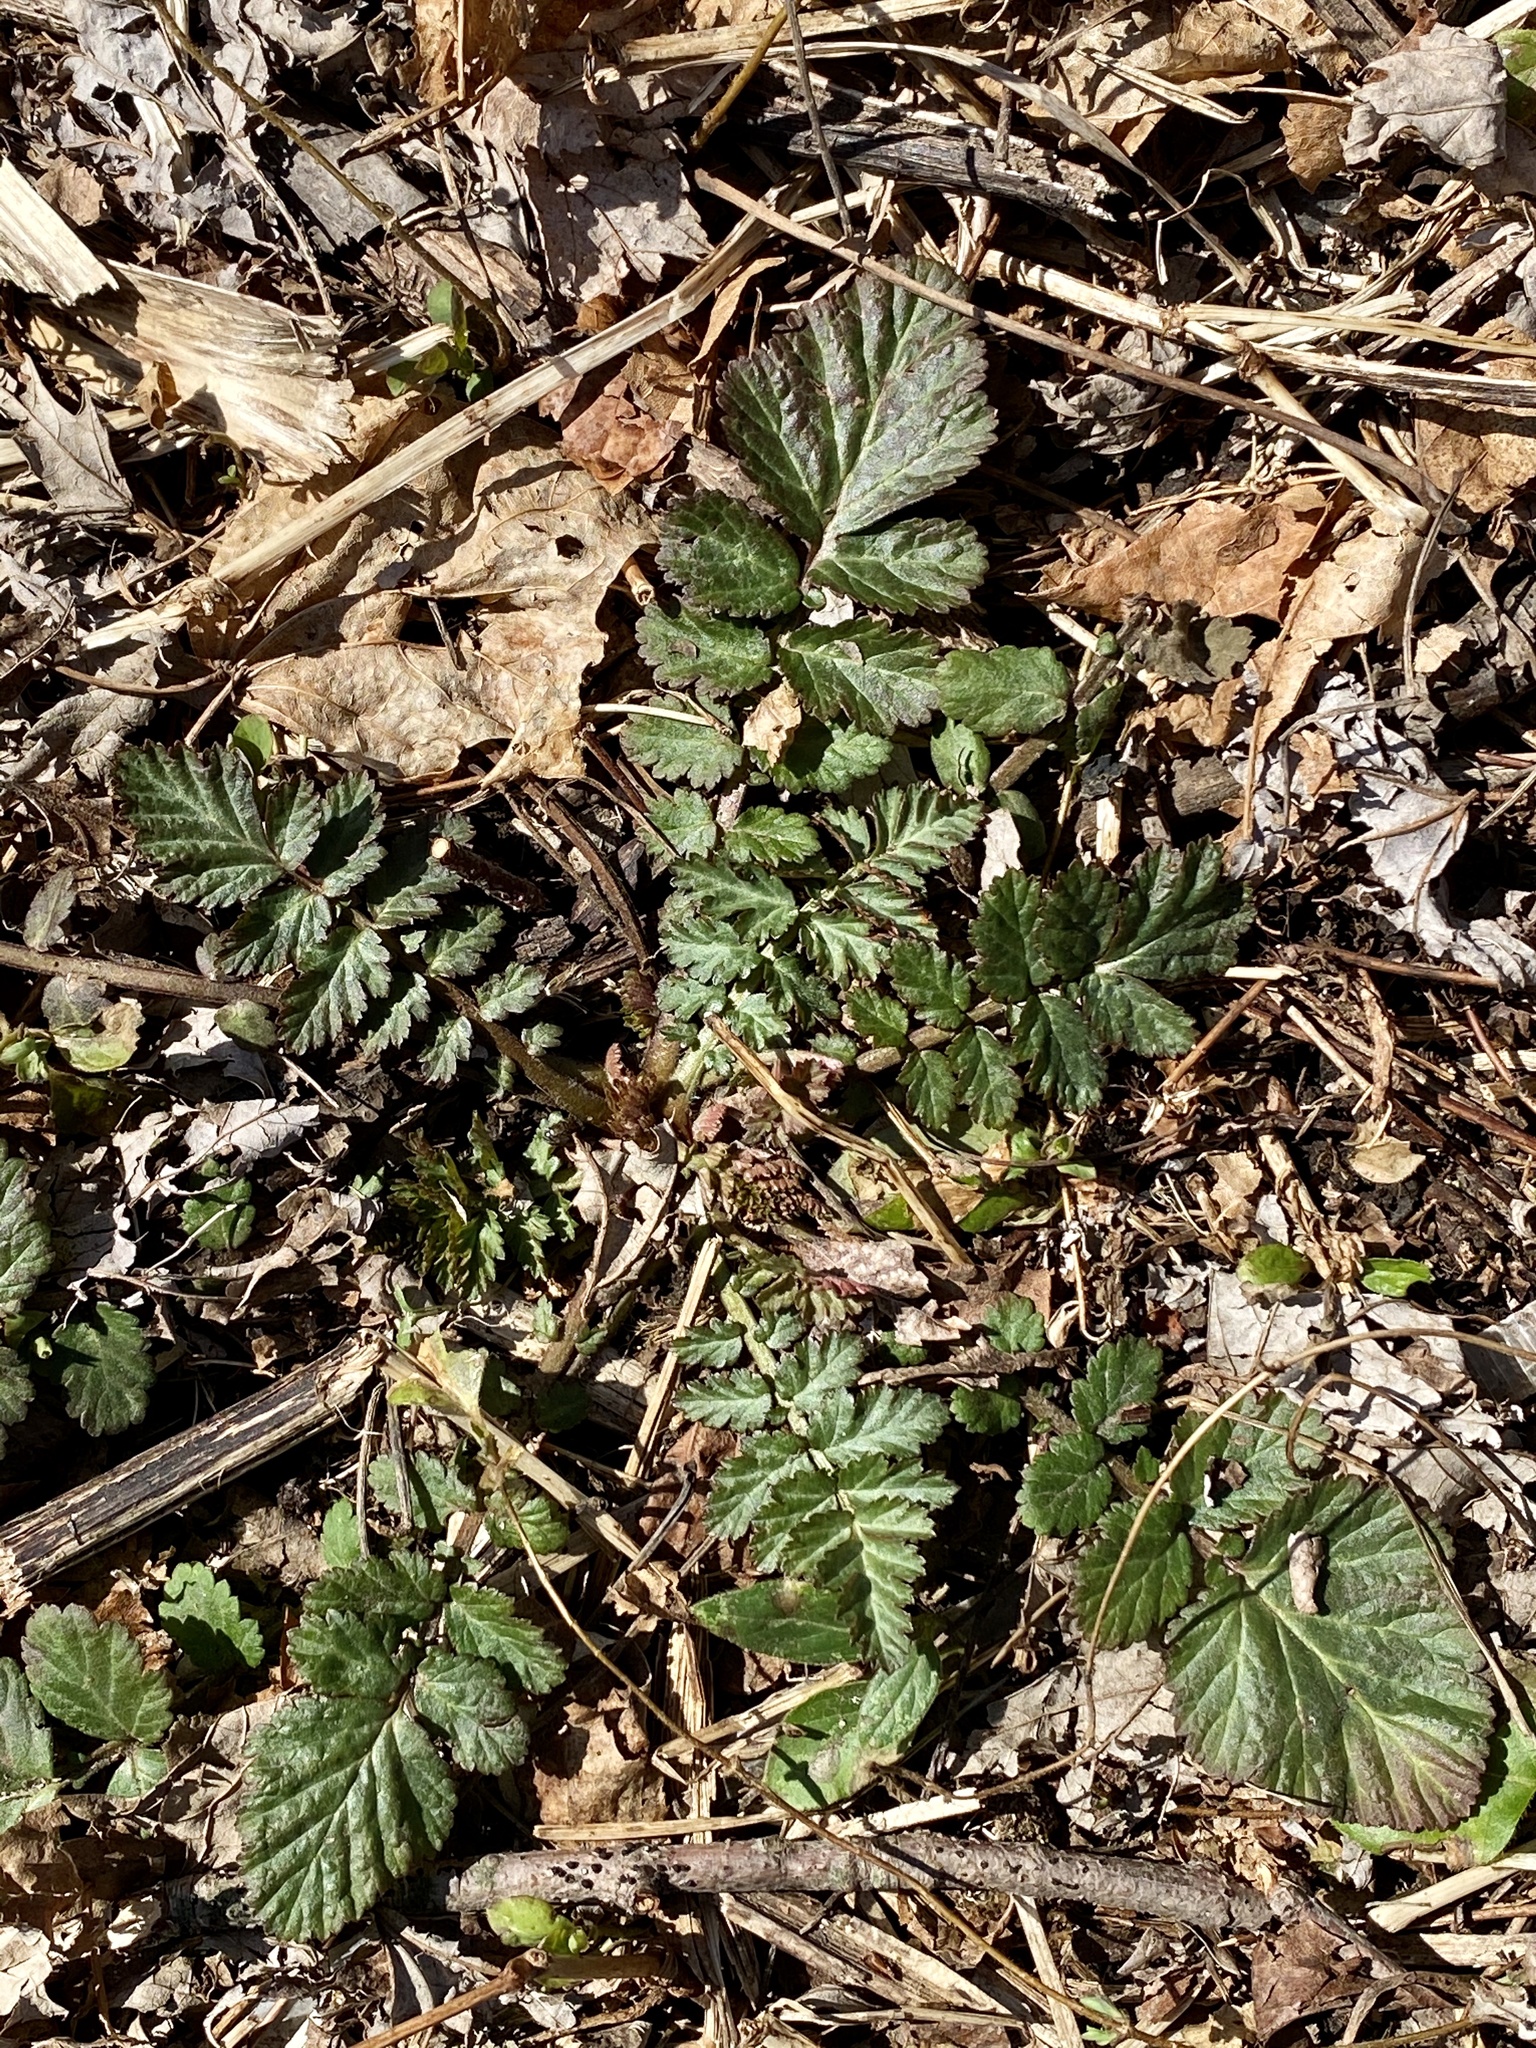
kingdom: Plantae
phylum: Tracheophyta
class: Magnoliopsida
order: Rosales
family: Rosaceae
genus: Geum
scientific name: Geum canadense
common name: White avens
